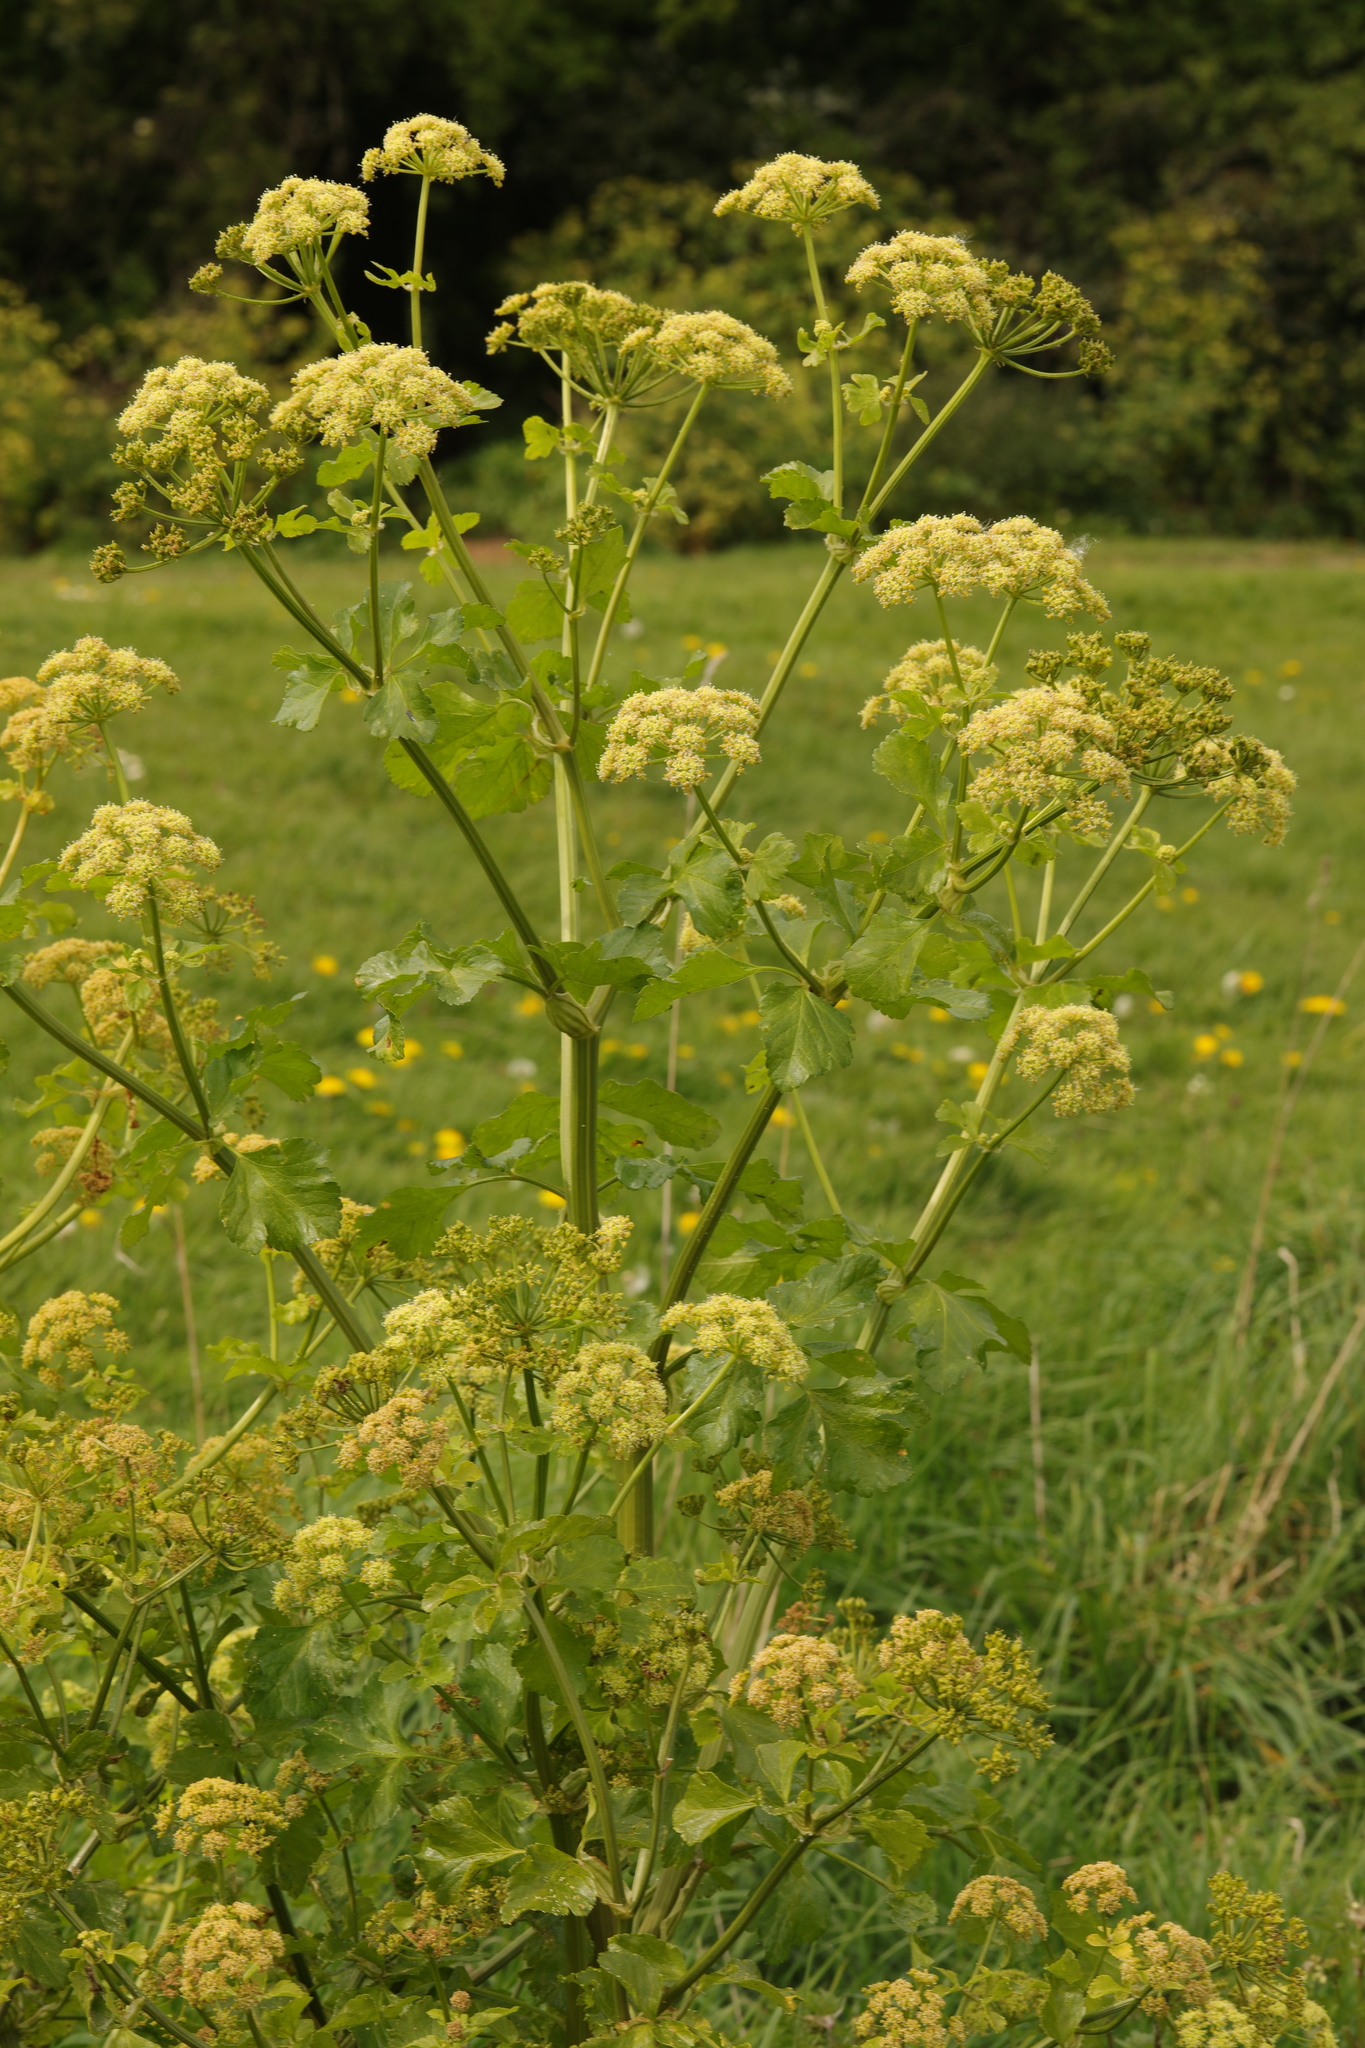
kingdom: Plantae
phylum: Tracheophyta
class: Magnoliopsida
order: Apiales
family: Apiaceae
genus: Smyrnium
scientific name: Smyrnium olusatrum
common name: Alexanders
